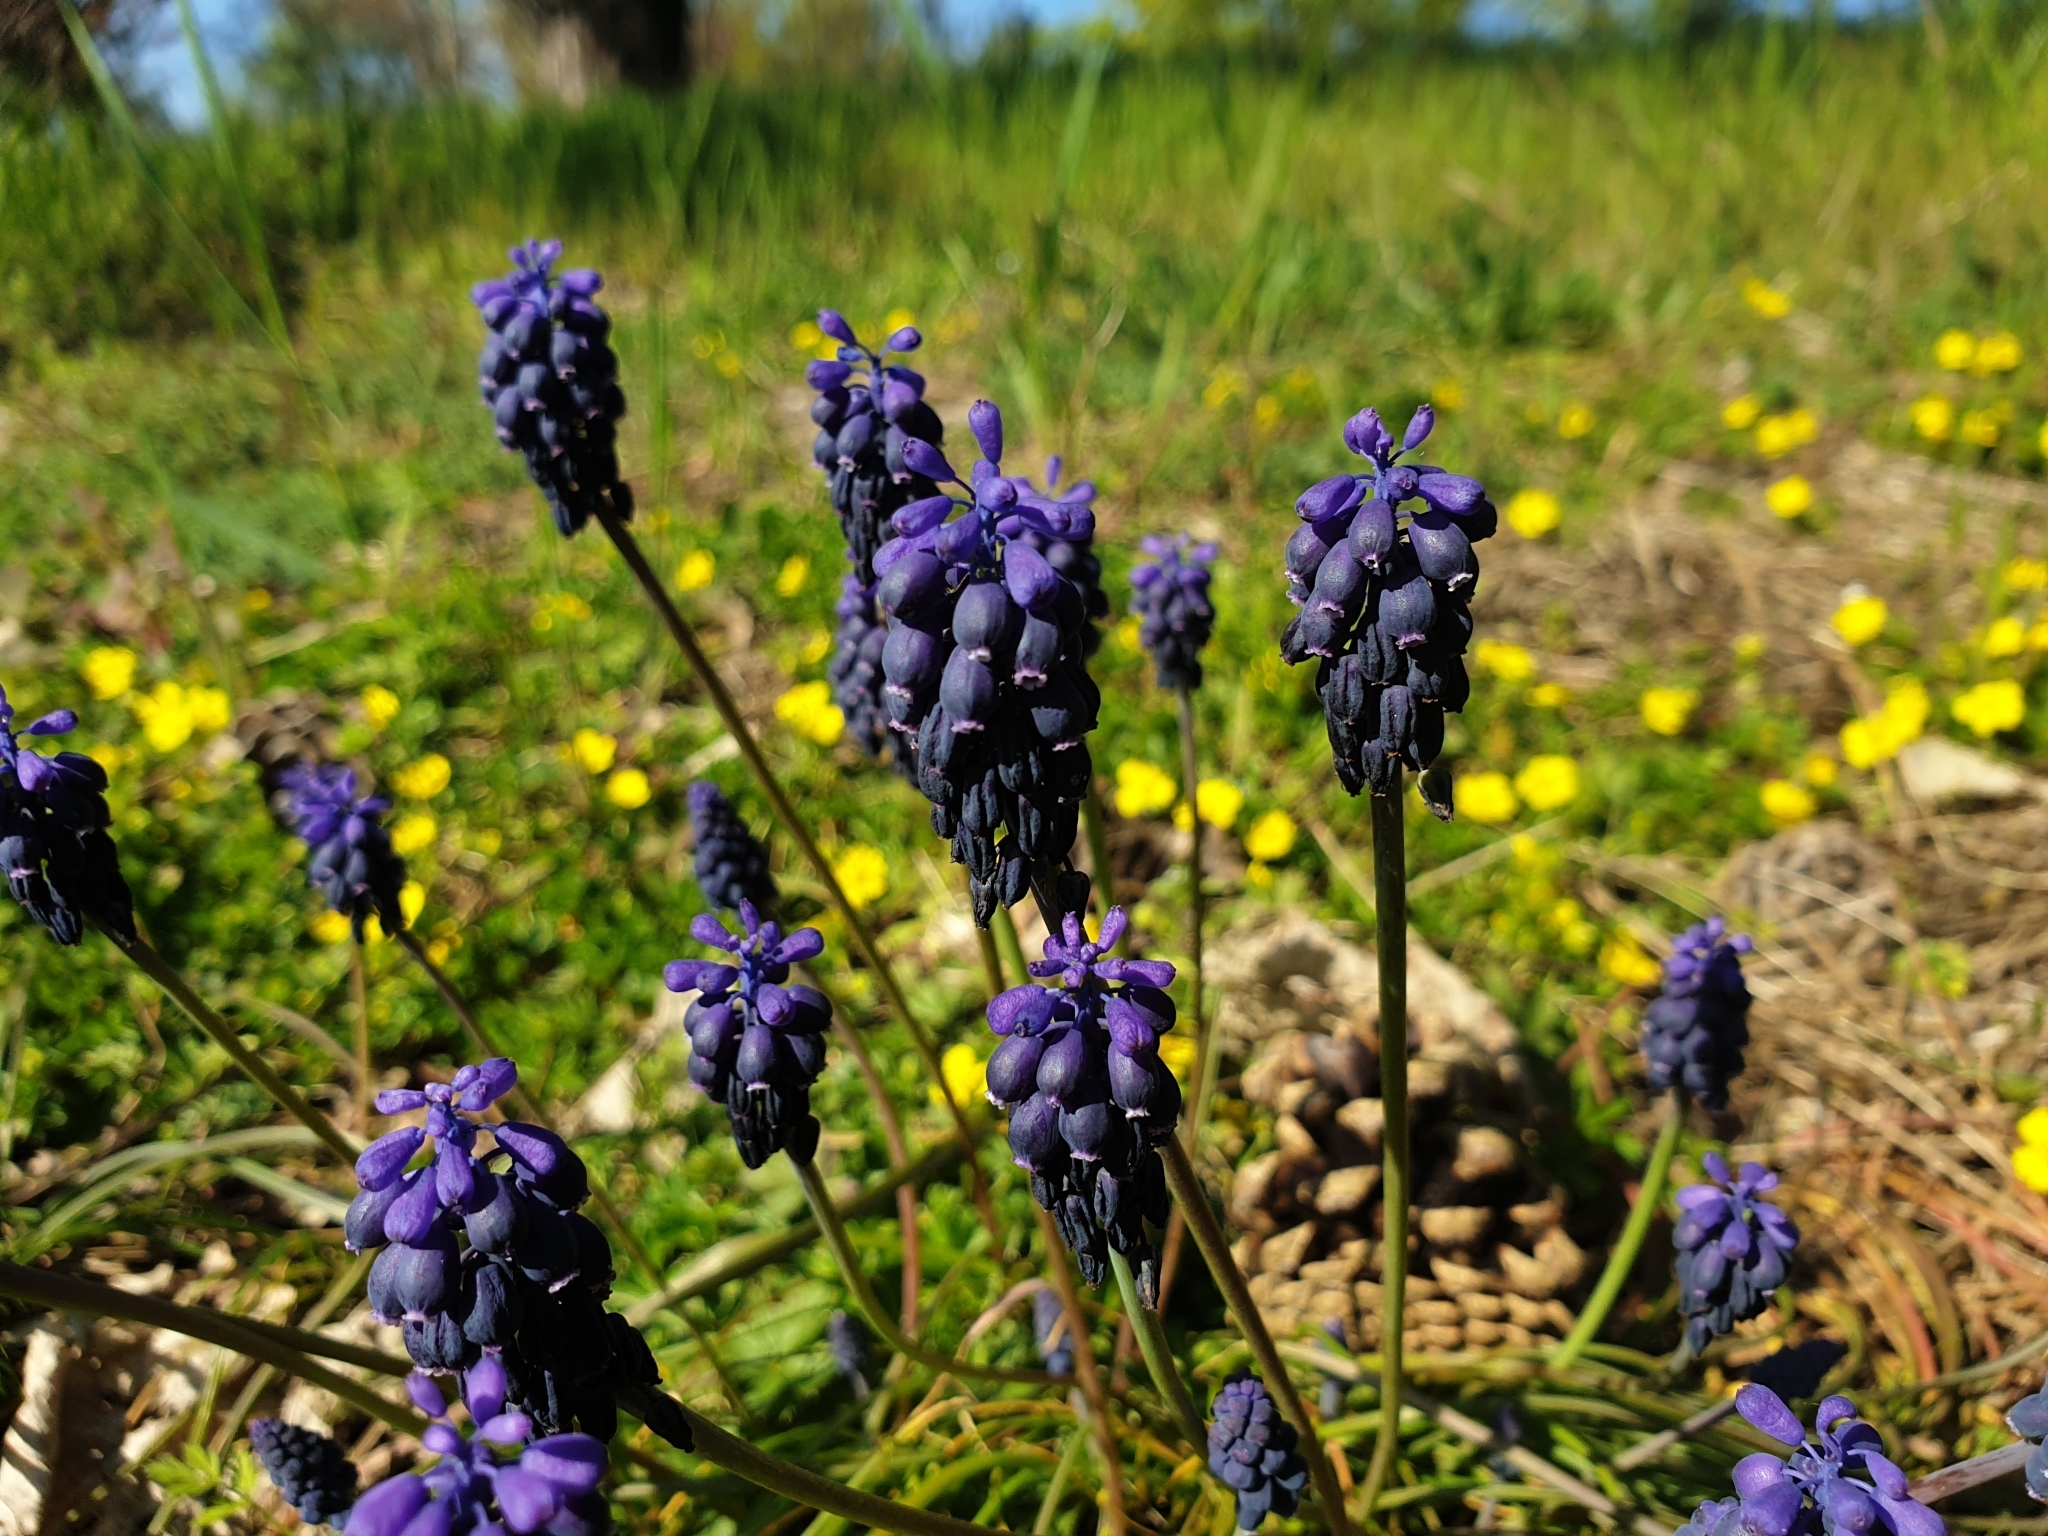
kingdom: Plantae
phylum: Tracheophyta
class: Liliopsida
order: Asparagales
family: Asparagaceae
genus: Muscari
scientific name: Muscari neglectum
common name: Grape-hyacinth
